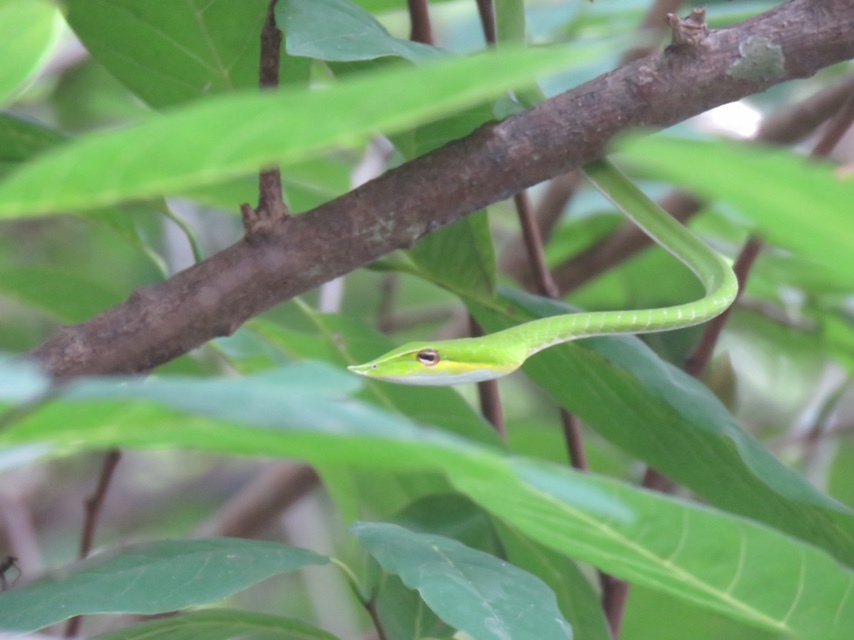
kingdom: Animalia
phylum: Chordata
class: Squamata
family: Colubridae
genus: Ahaetulla
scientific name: Ahaetulla oxyrhyncha
